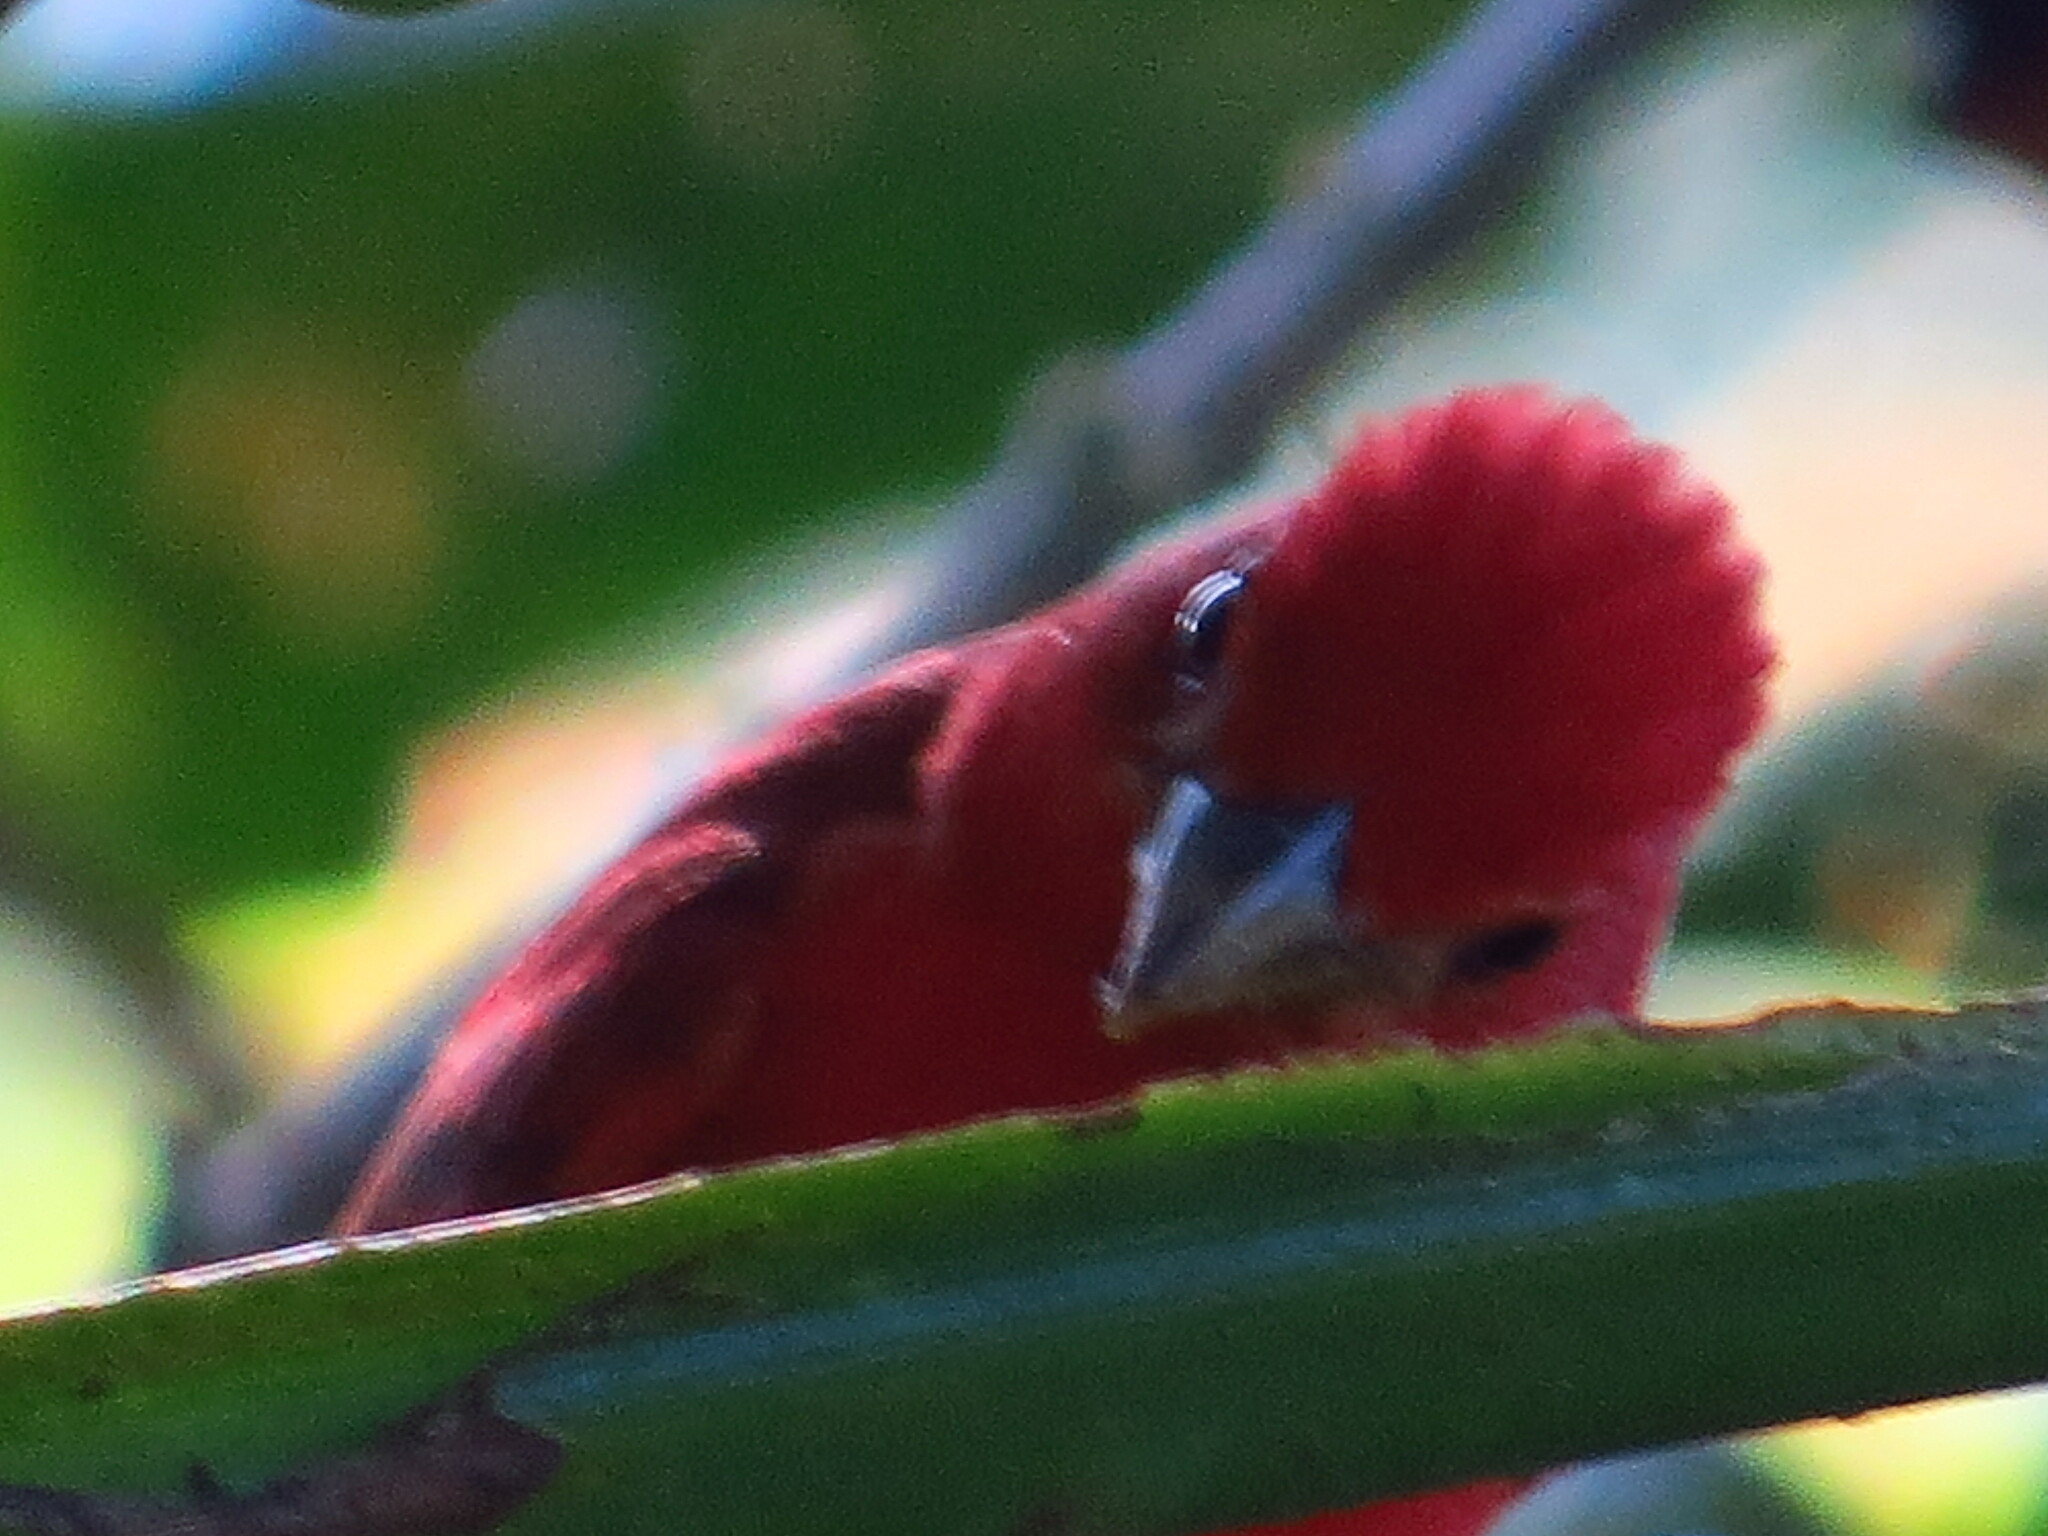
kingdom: Animalia
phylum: Chordata
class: Aves
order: Passeriformes
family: Cardinalidae
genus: Piranga
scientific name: Piranga rubra
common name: Summer tanager
